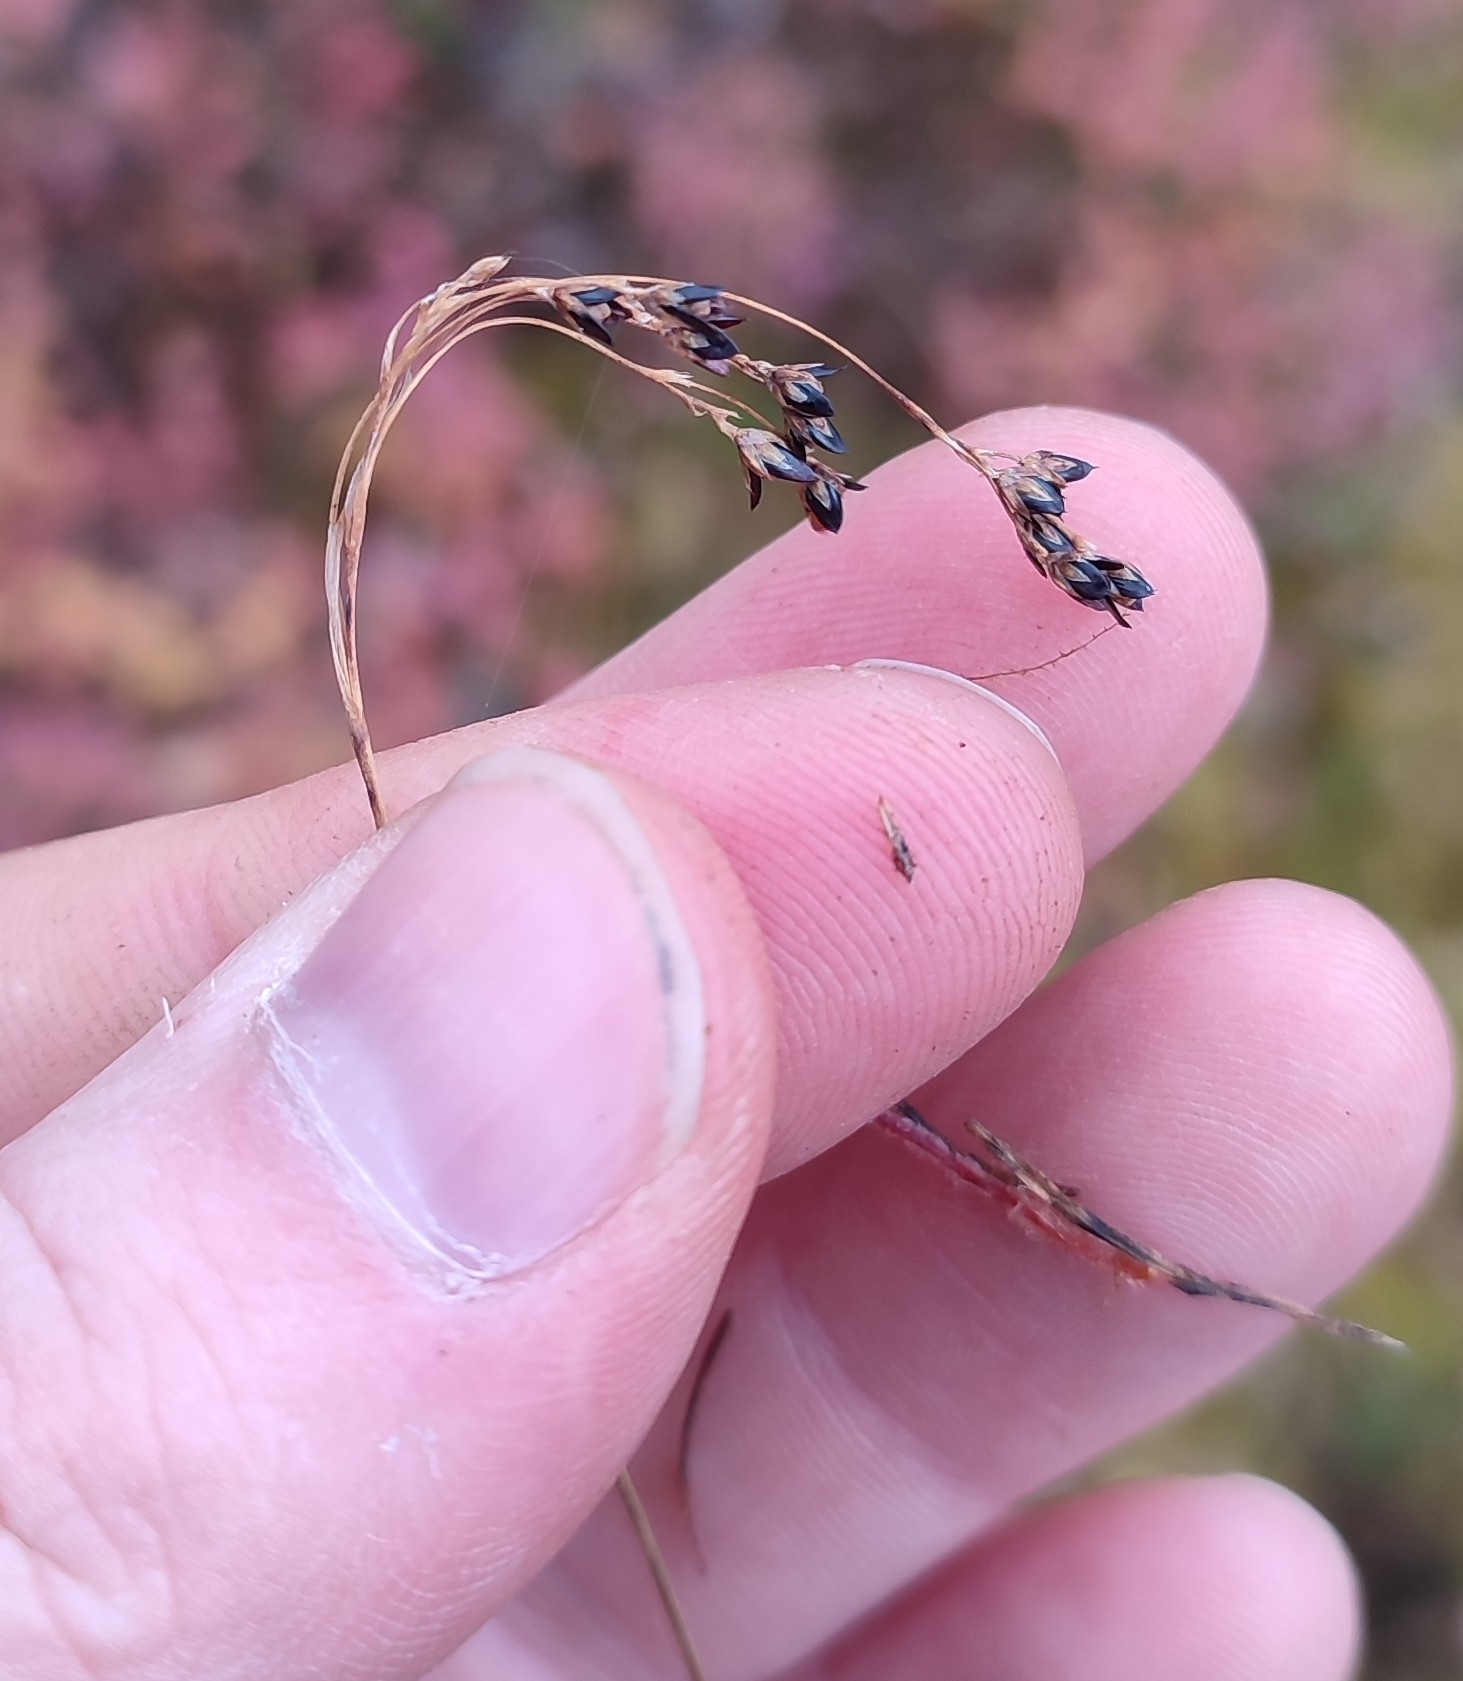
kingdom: Plantae
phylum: Tracheophyta
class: Liliopsida
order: Poales
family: Juncaceae
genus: Luzula
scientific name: Luzula parviflora
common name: Millet woodrush
